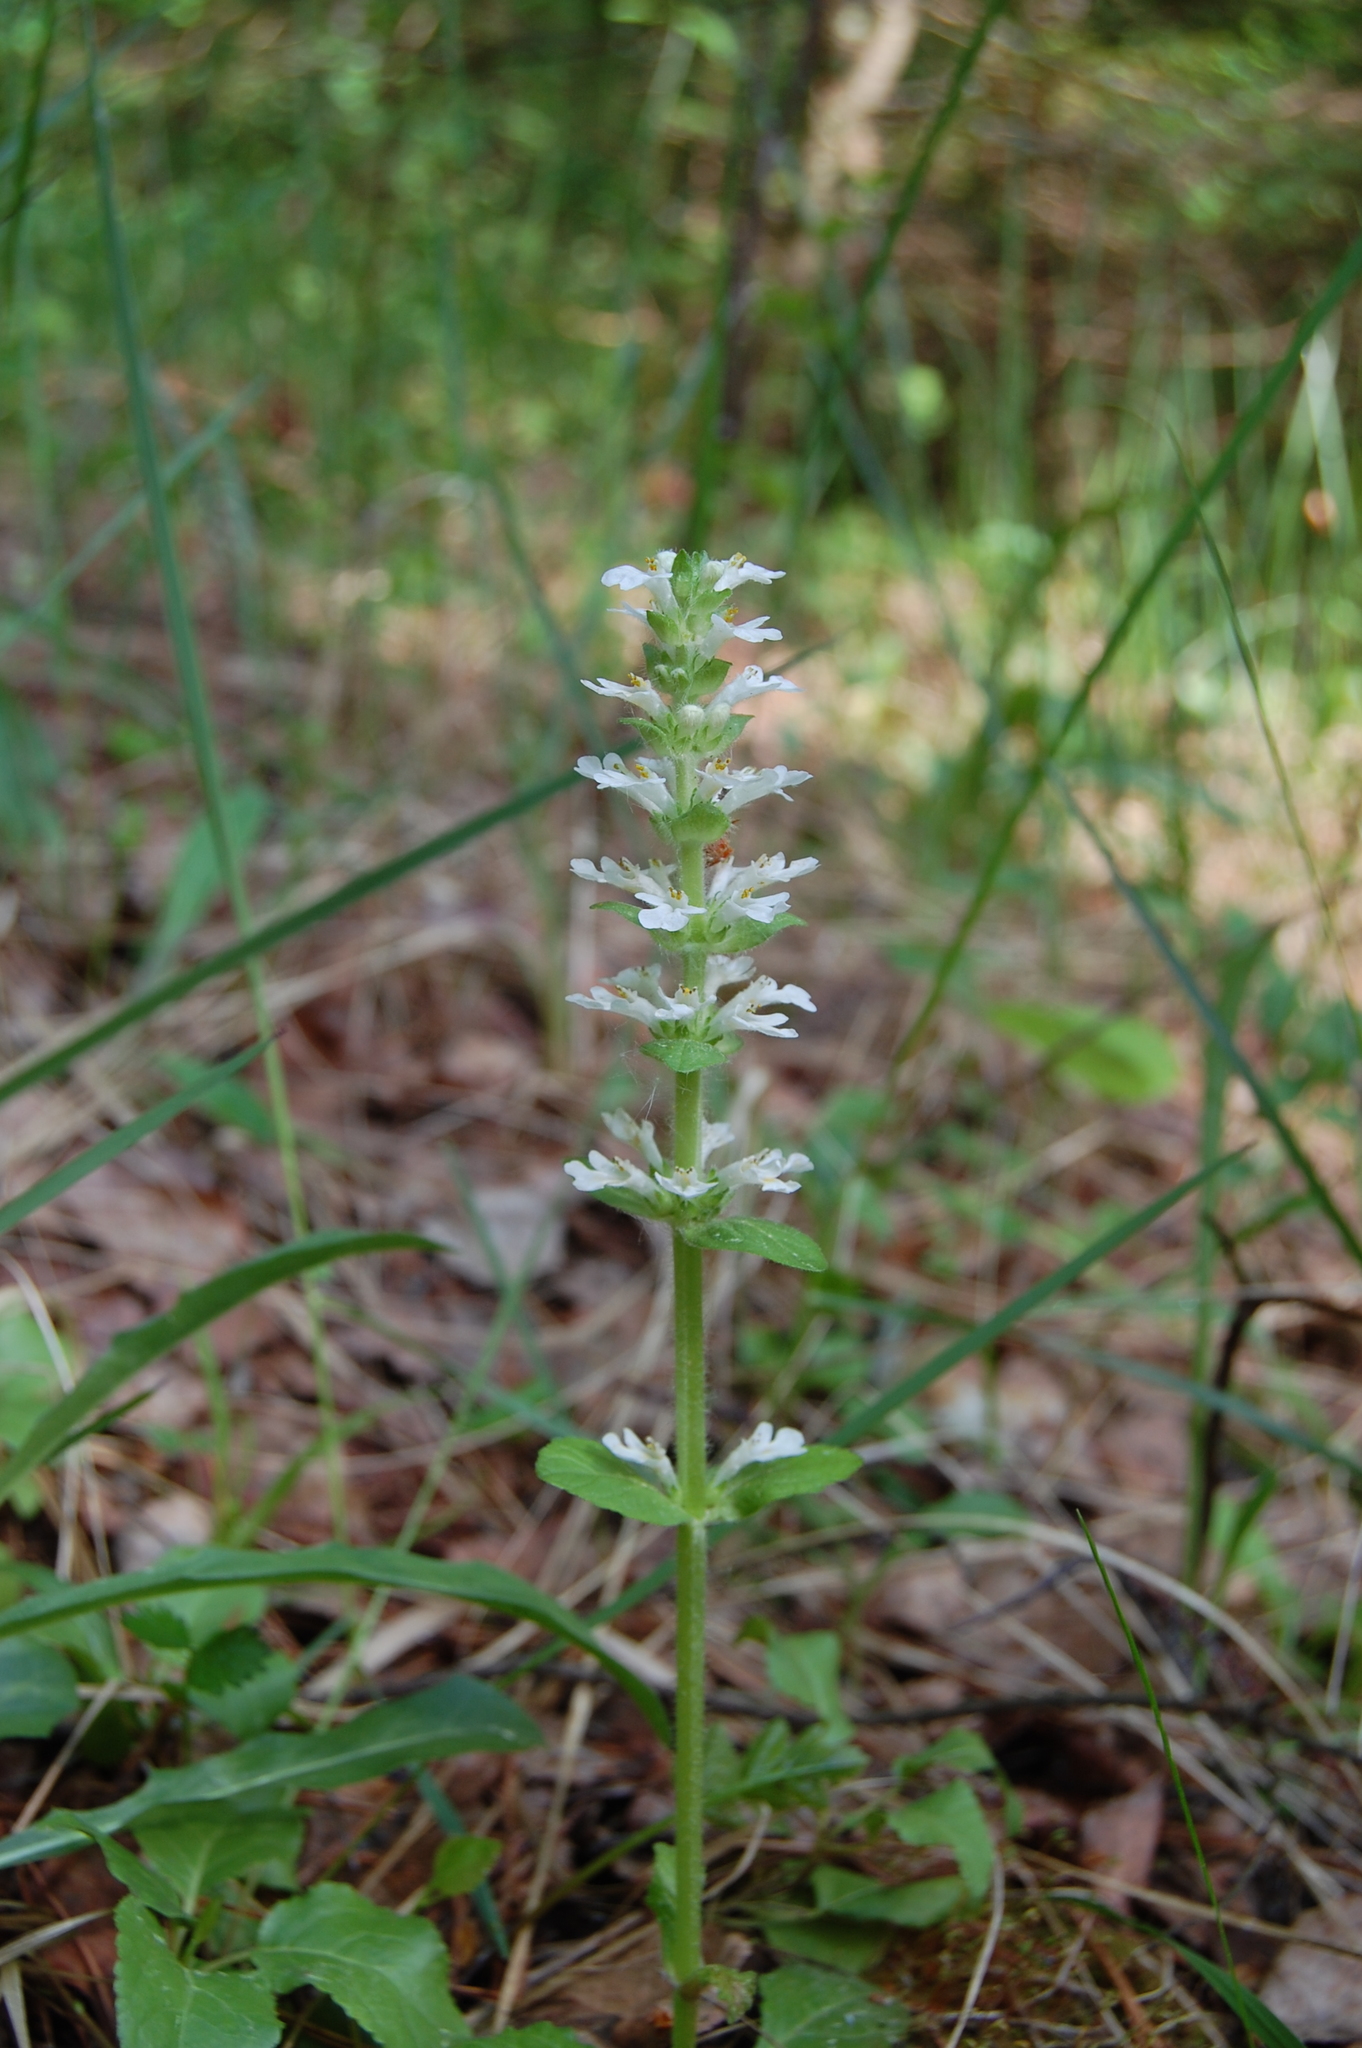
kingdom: Plantae
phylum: Tracheophyta
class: Magnoliopsida
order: Lamiales
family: Lamiaceae
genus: Ajuga
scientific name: Ajuga reptans
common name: Bugle
